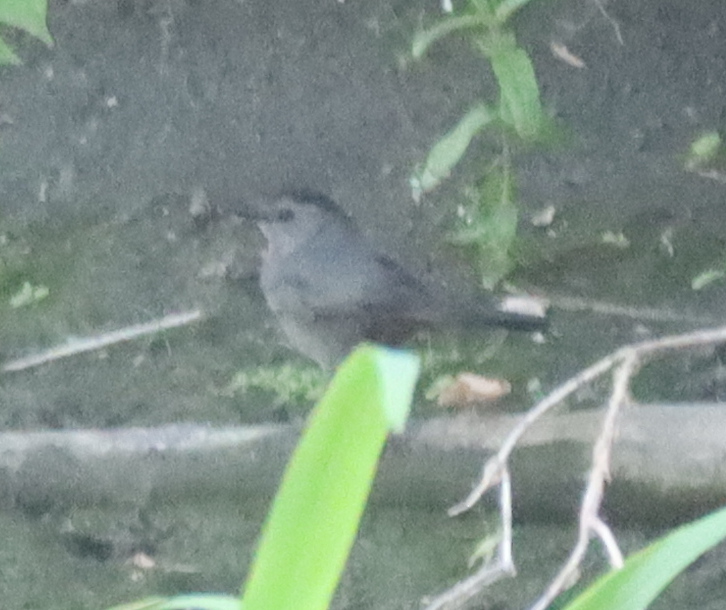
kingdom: Animalia
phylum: Chordata
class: Aves
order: Passeriformes
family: Mimidae
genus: Dumetella
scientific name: Dumetella carolinensis
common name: Gray catbird
